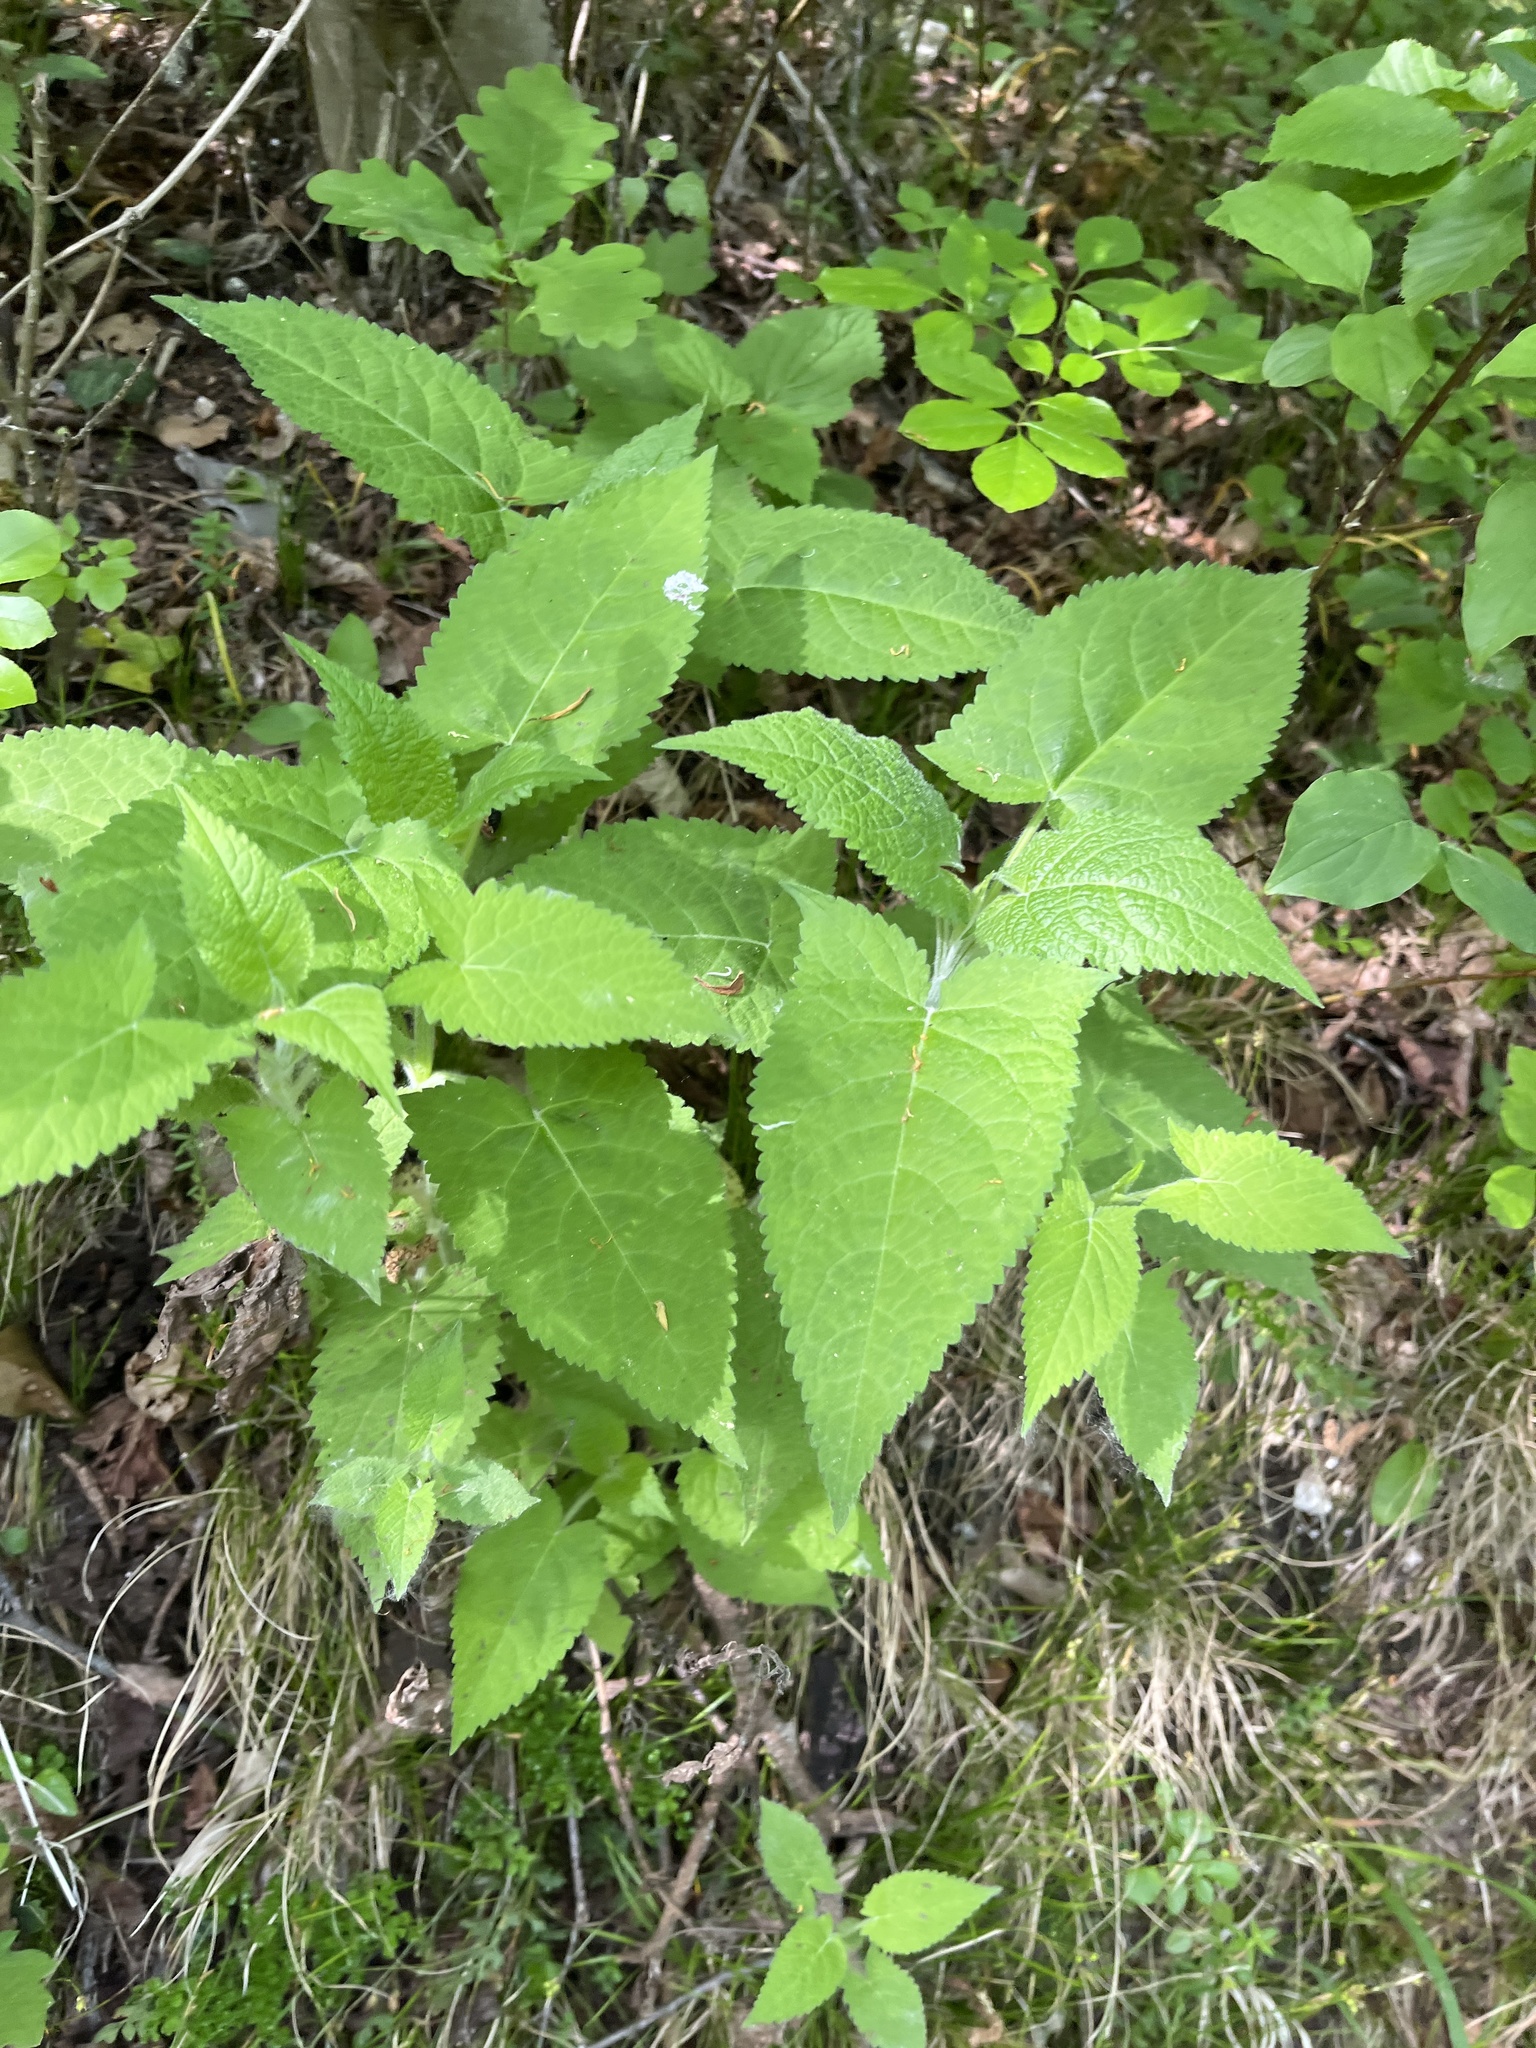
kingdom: Plantae
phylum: Tracheophyta
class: Magnoliopsida
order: Lamiales
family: Lamiaceae
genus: Salvia
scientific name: Salvia glutinosa
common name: Sticky clary
